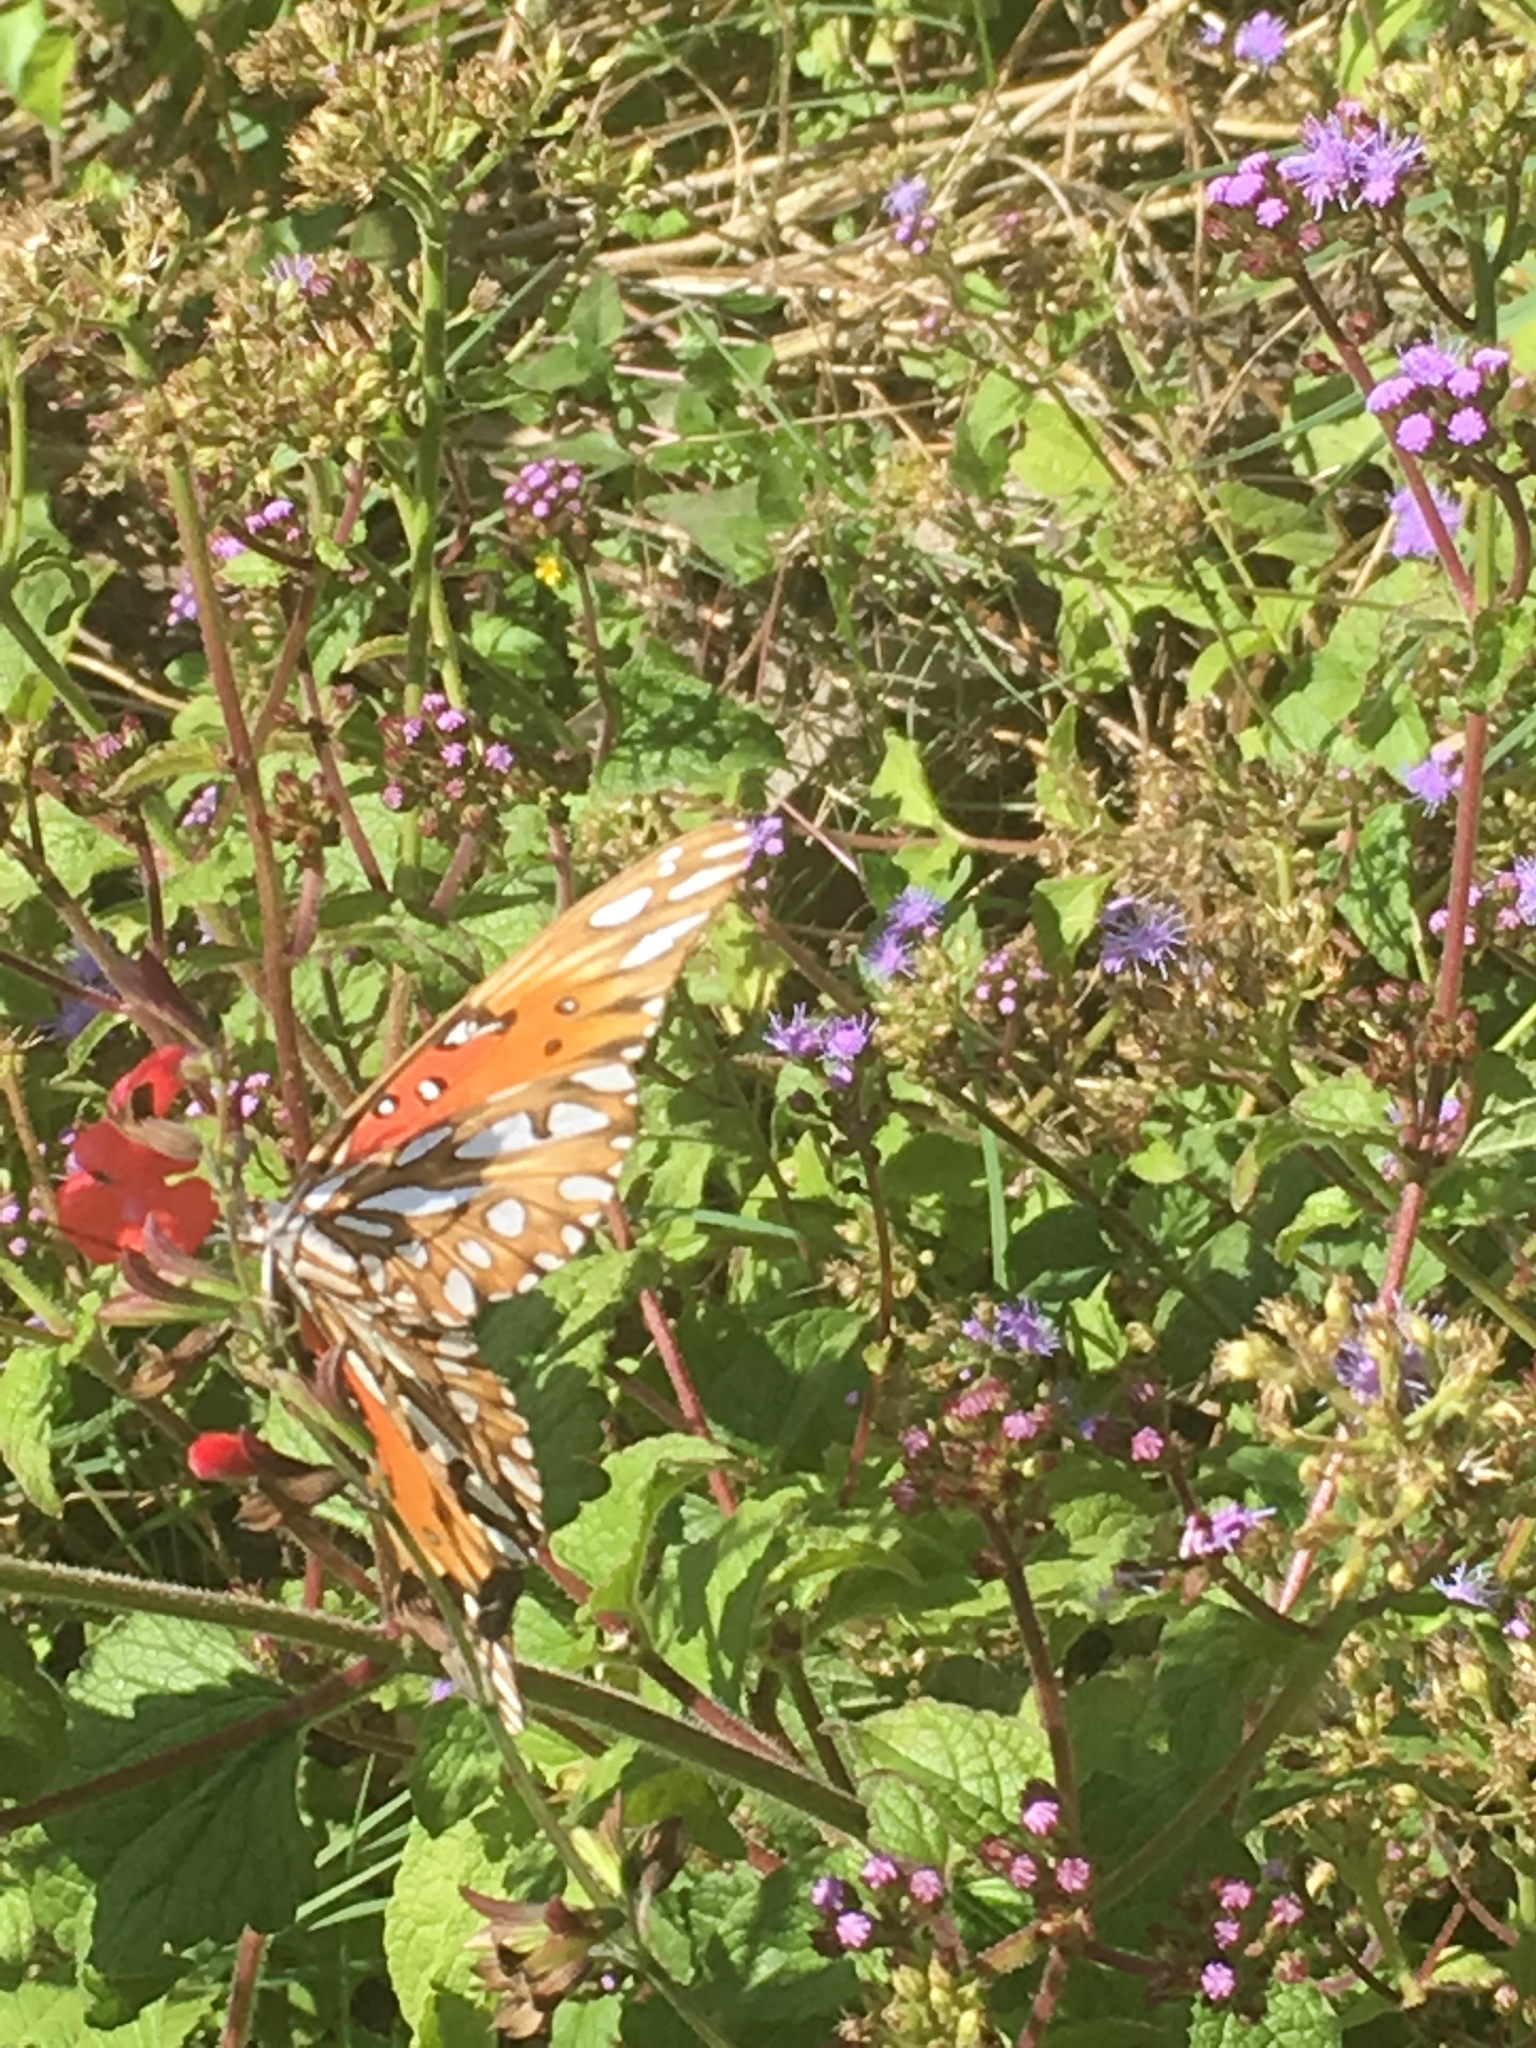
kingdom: Animalia
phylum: Arthropoda
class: Insecta
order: Lepidoptera
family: Nymphalidae
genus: Dione
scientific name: Dione vanillae
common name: Gulf fritillary
